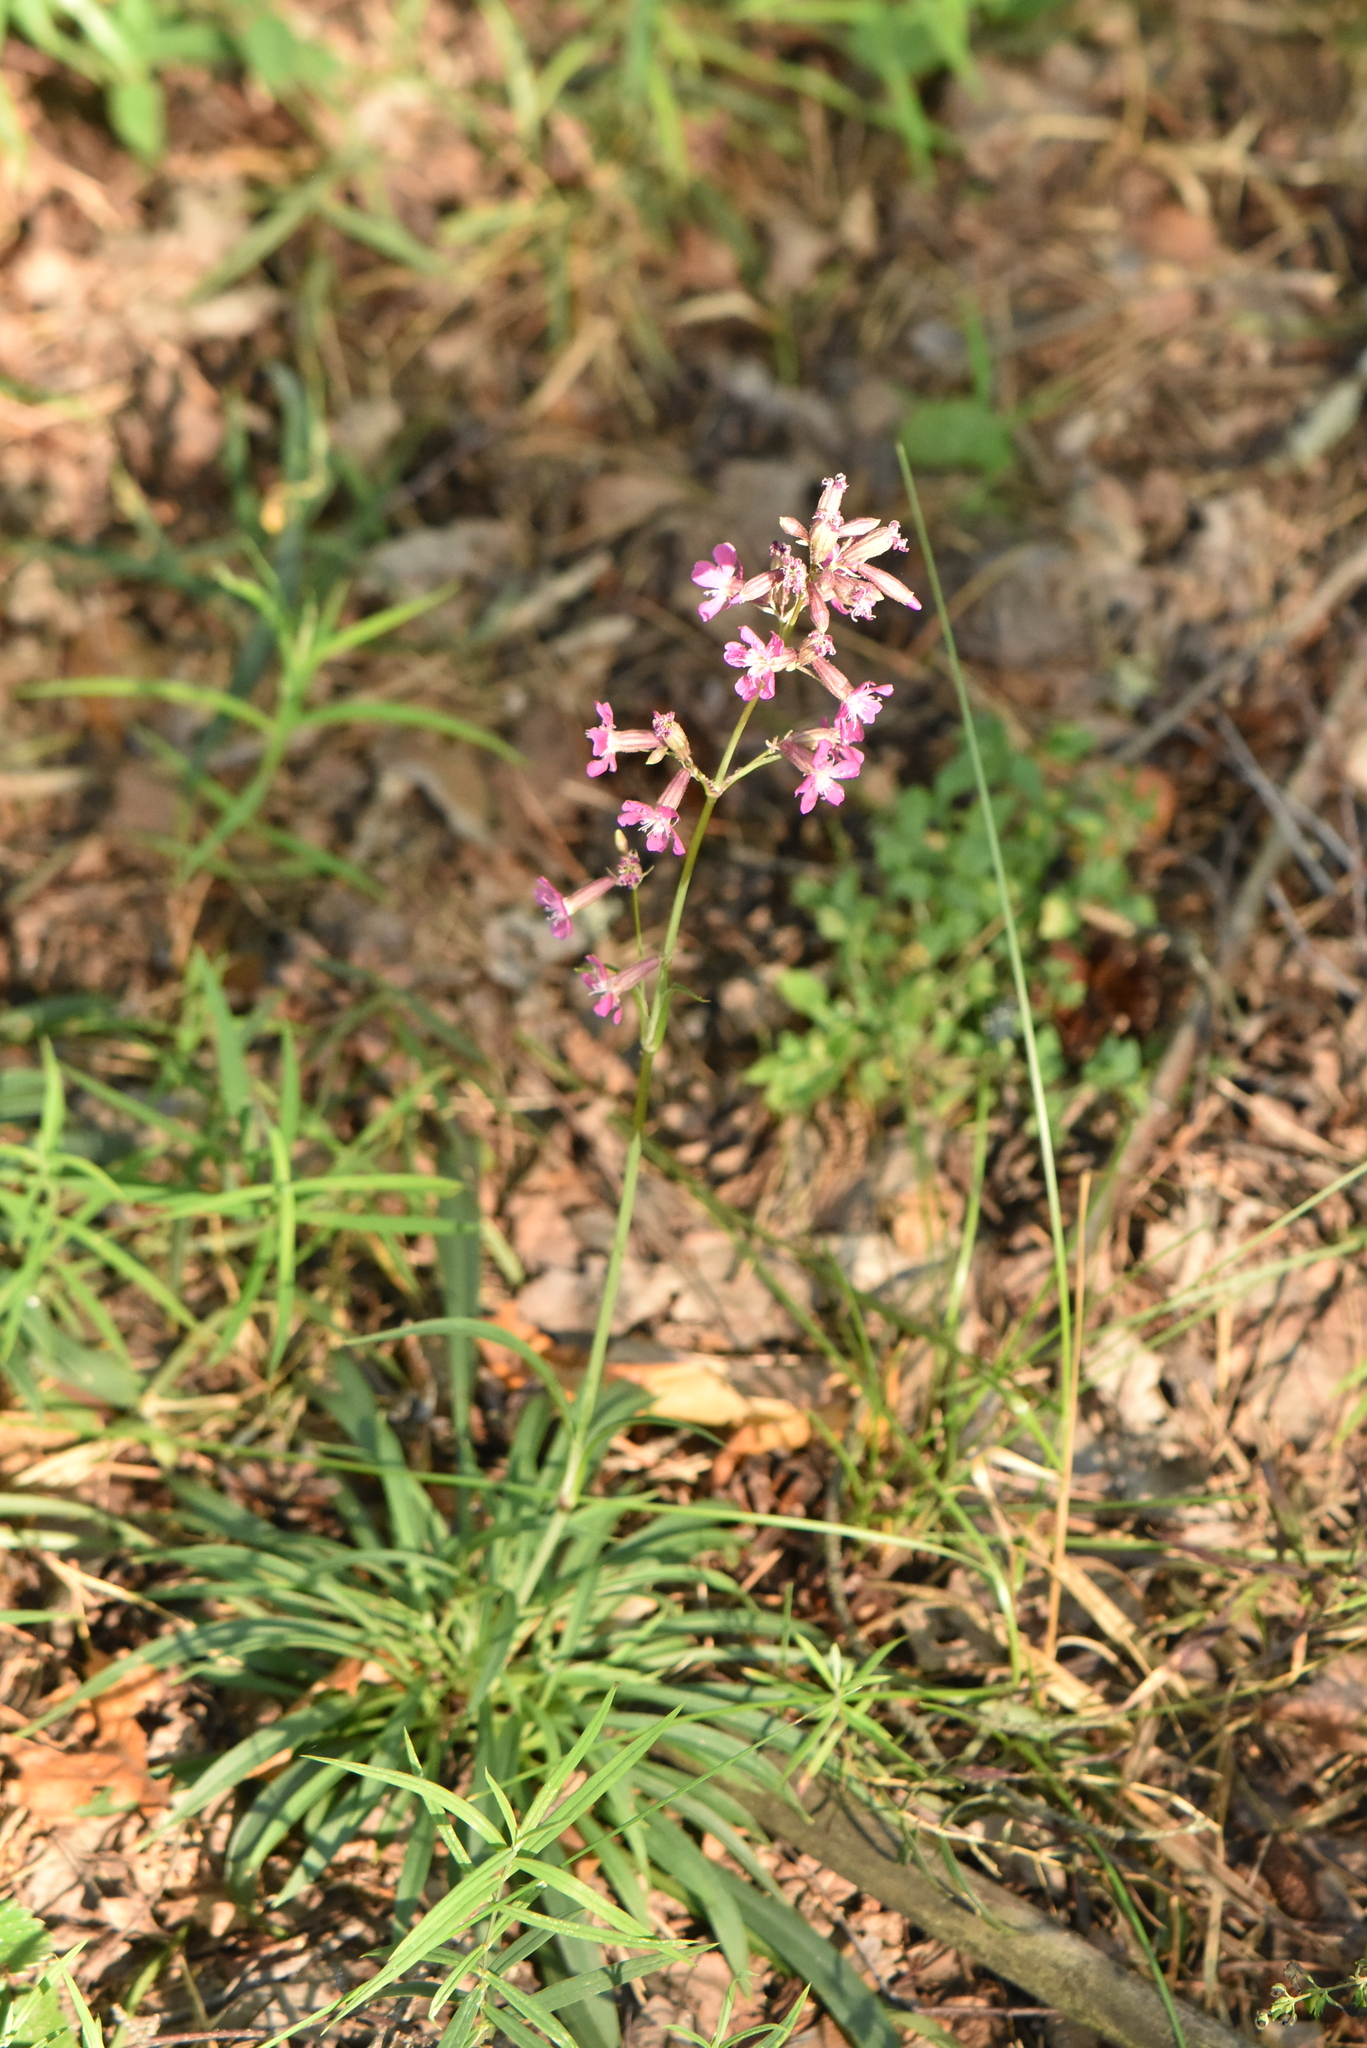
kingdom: Plantae
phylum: Tracheophyta
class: Magnoliopsida
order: Caryophyllales
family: Caryophyllaceae
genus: Viscaria
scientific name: Viscaria vulgaris
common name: Clammy campion
